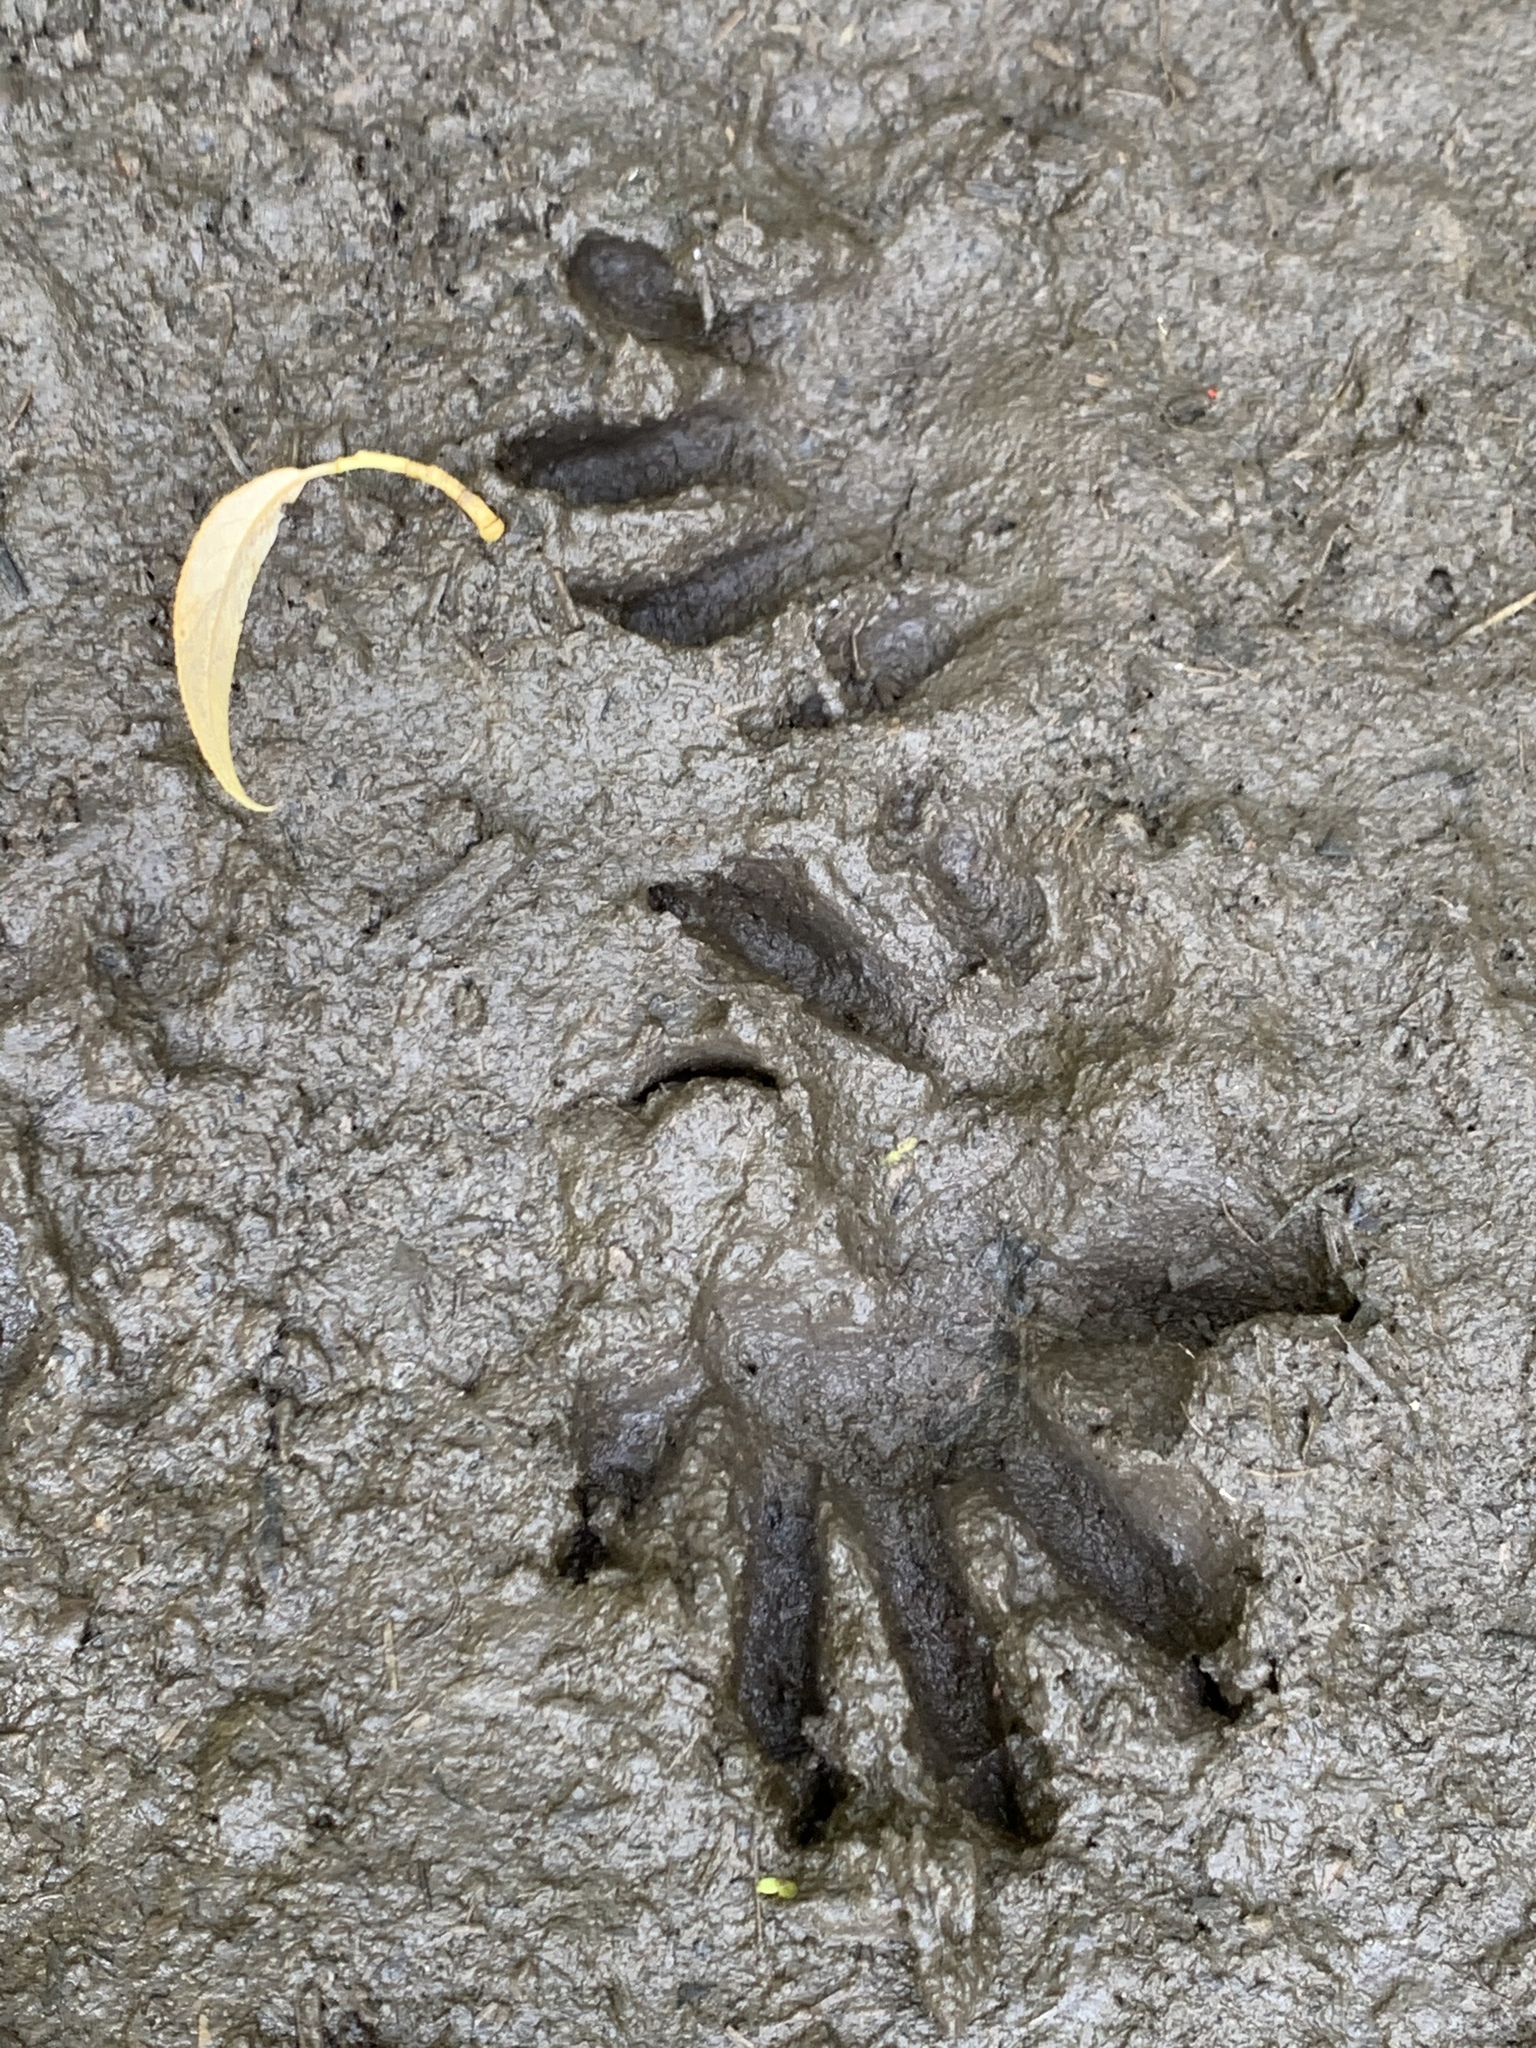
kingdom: Animalia
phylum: Chordata
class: Mammalia
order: Carnivora
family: Procyonidae
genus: Procyon
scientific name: Procyon lotor
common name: Raccoon
